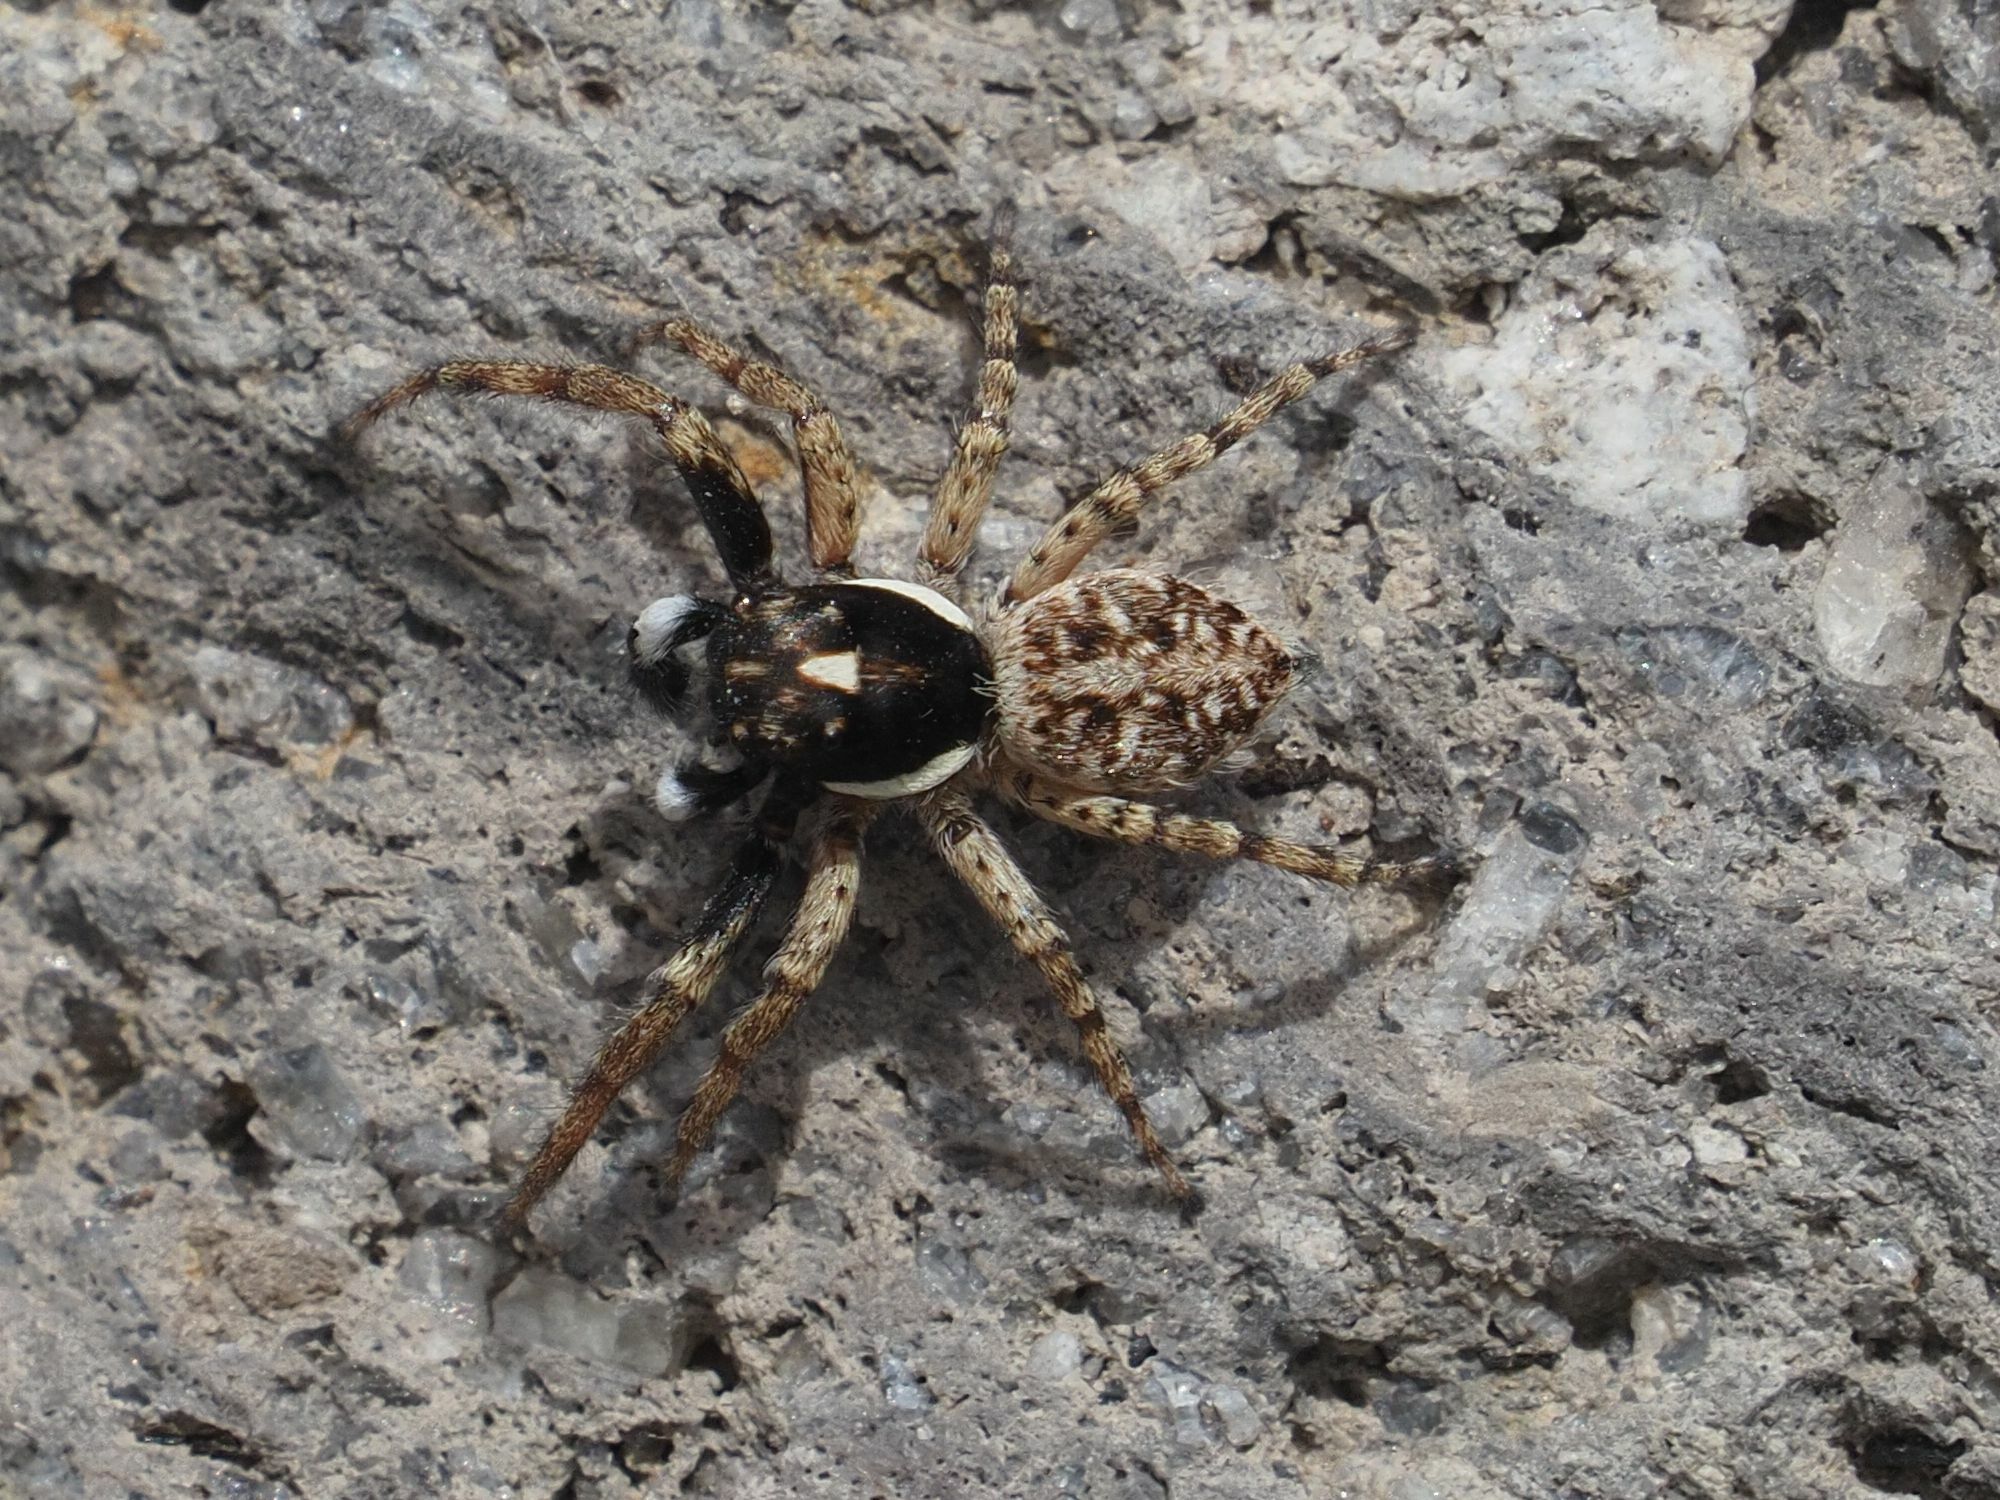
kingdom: Animalia
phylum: Arthropoda
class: Arachnida
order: Araneae
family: Salticidae
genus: Menemerus
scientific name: Menemerus semilimbatus
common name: Jumping spider
